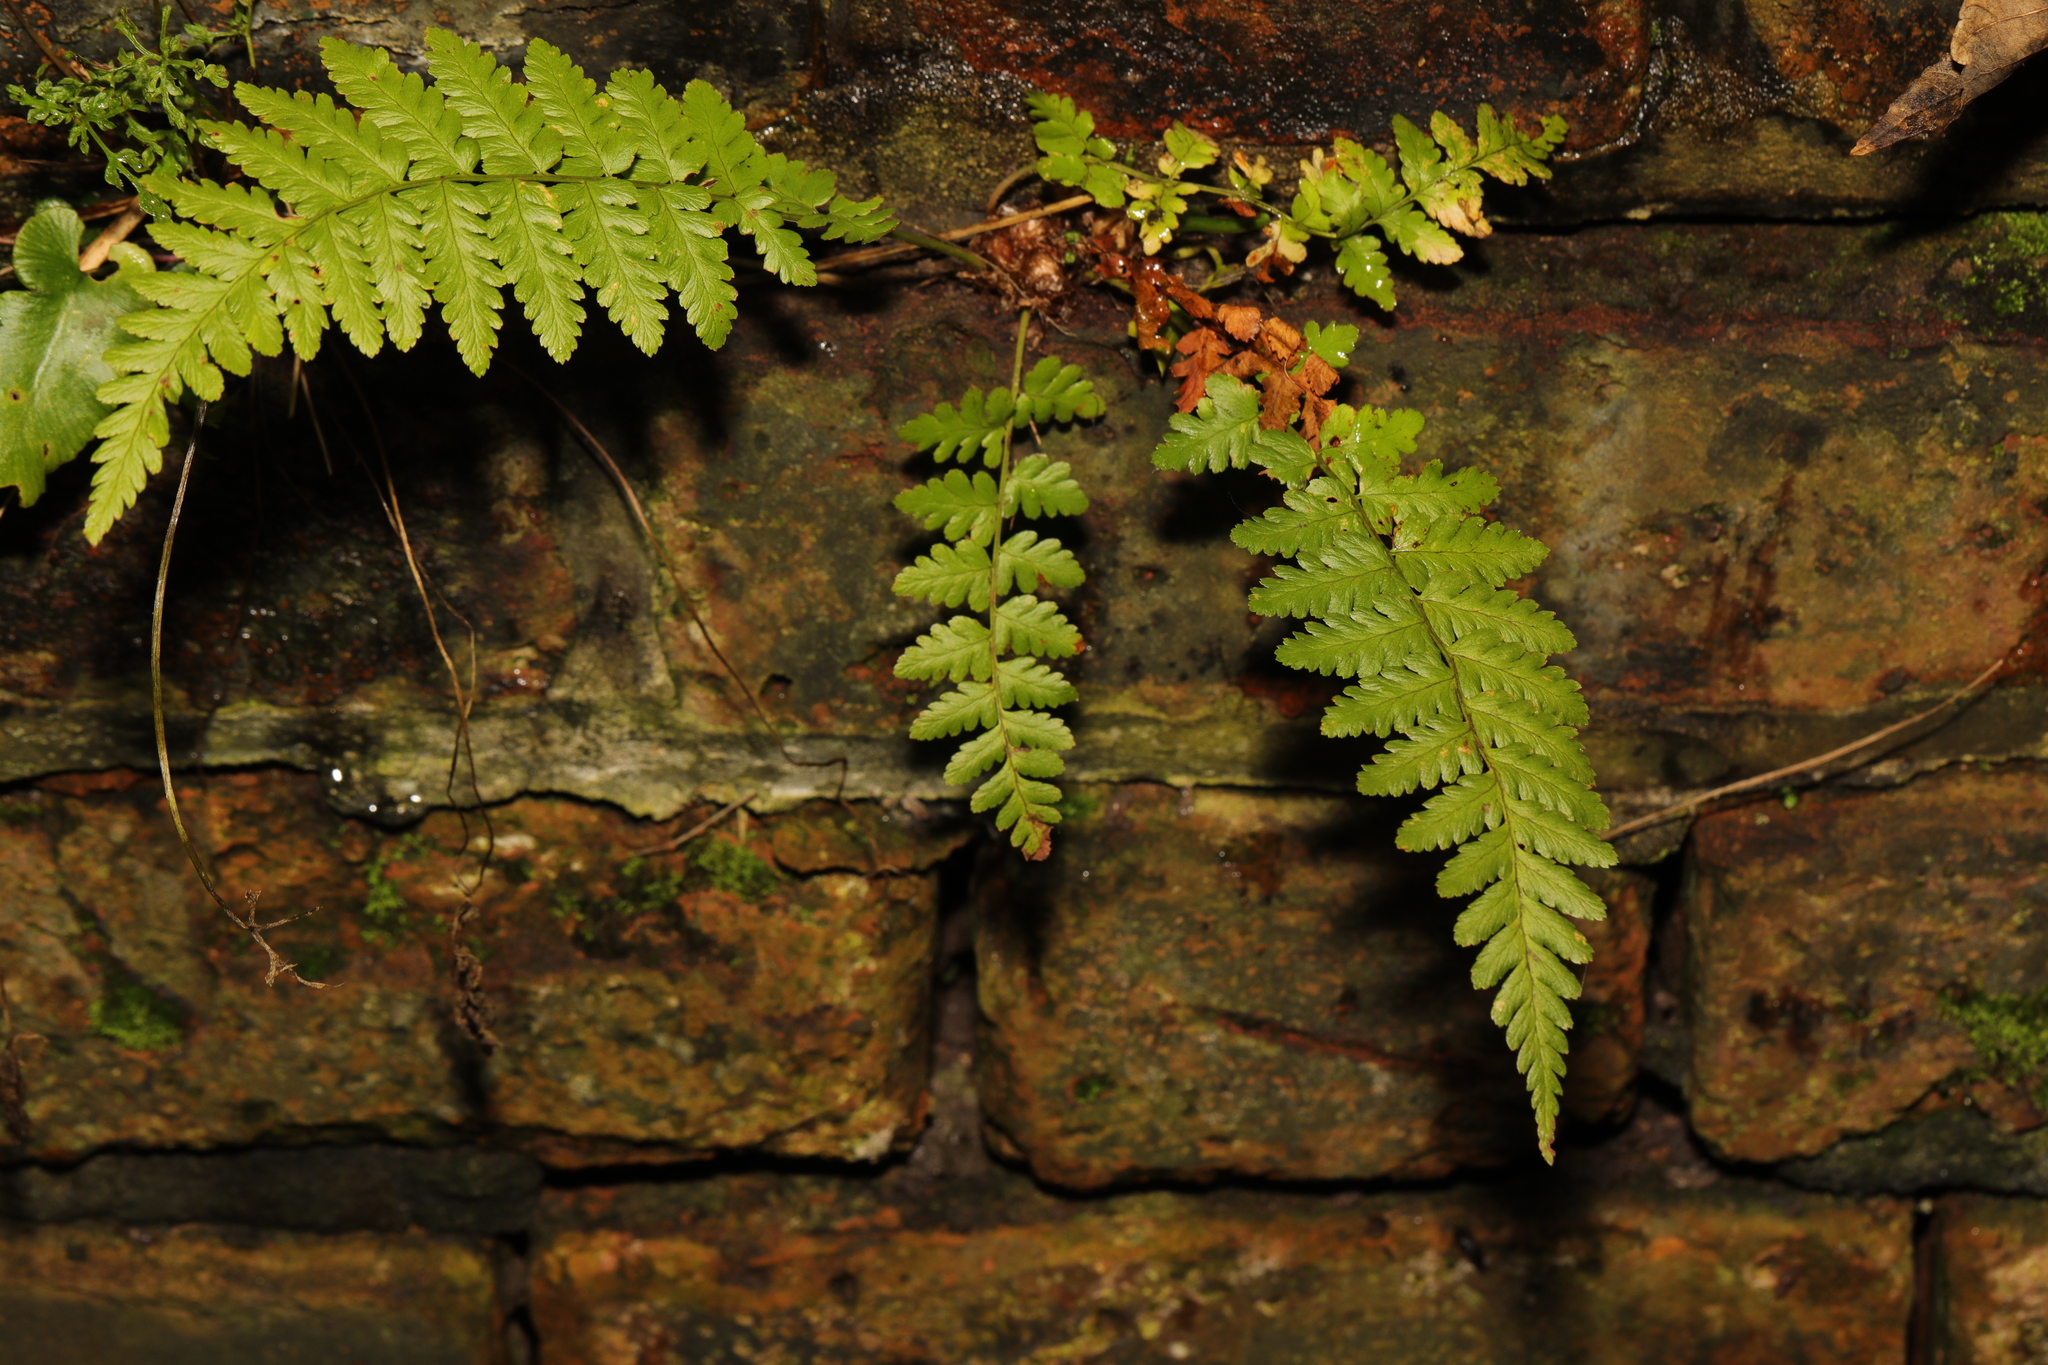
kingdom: Plantae
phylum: Tracheophyta
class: Polypodiopsida
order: Polypodiales
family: Dryopteridaceae
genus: Dryopteris
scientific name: Dryopteris filix-mas
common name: Male fern
